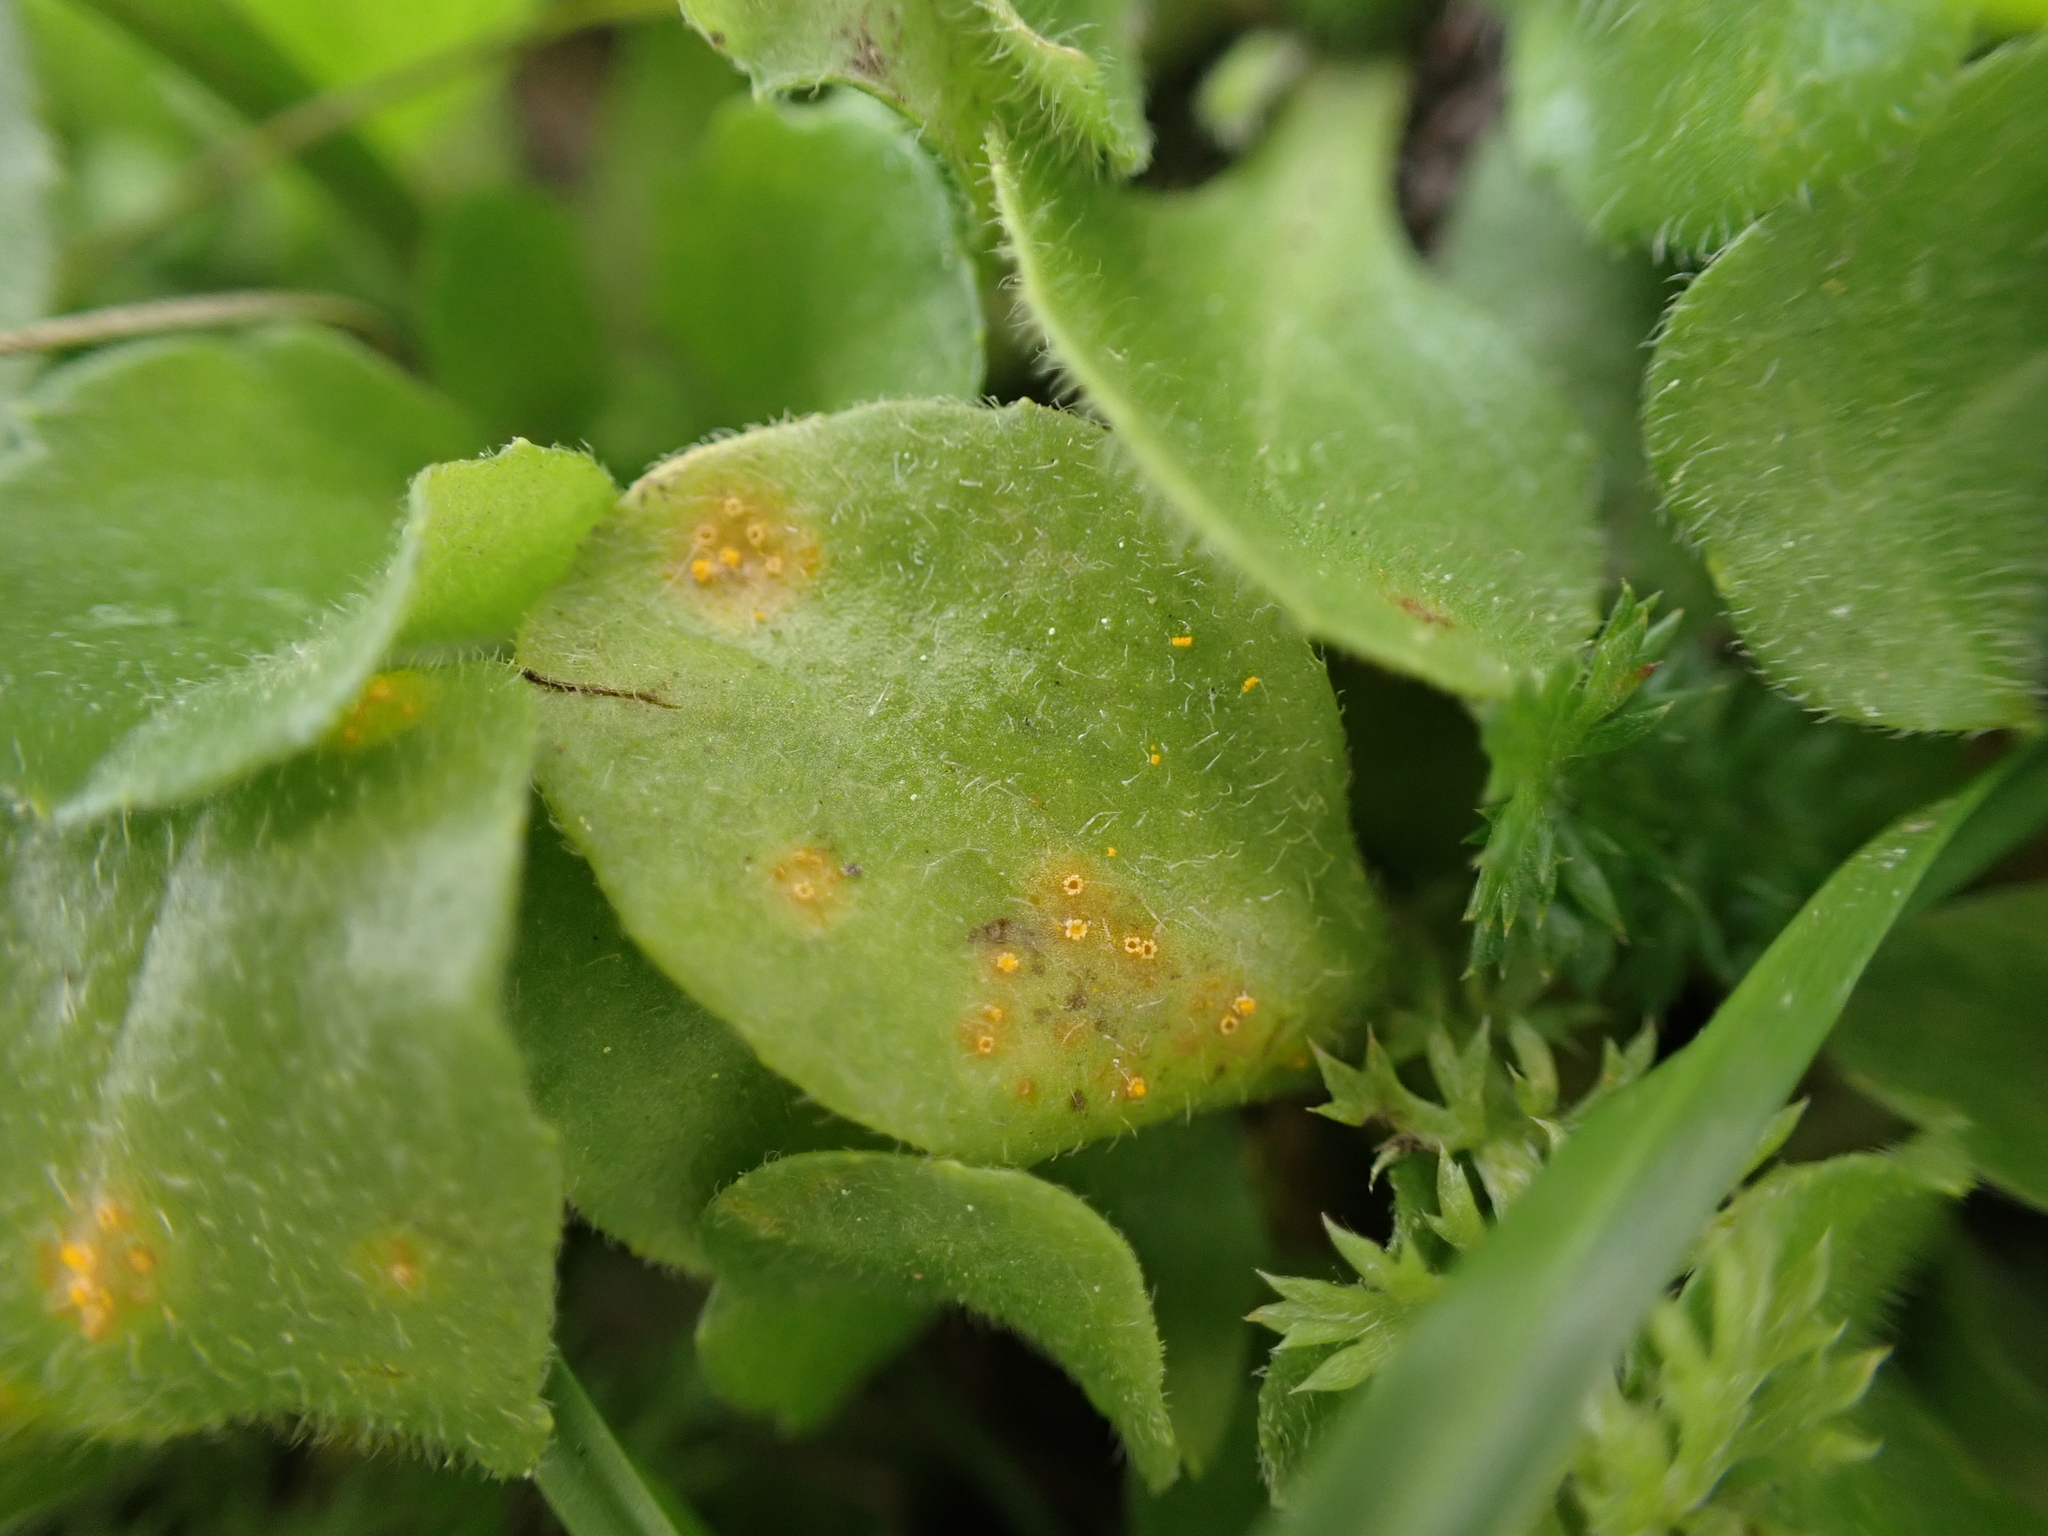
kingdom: Fungi
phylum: Basidiomycota
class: Pucciniomycetes
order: Pucciniales
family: Pucciniaceae
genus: Puccinia
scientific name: Puccinia lagenophorae
